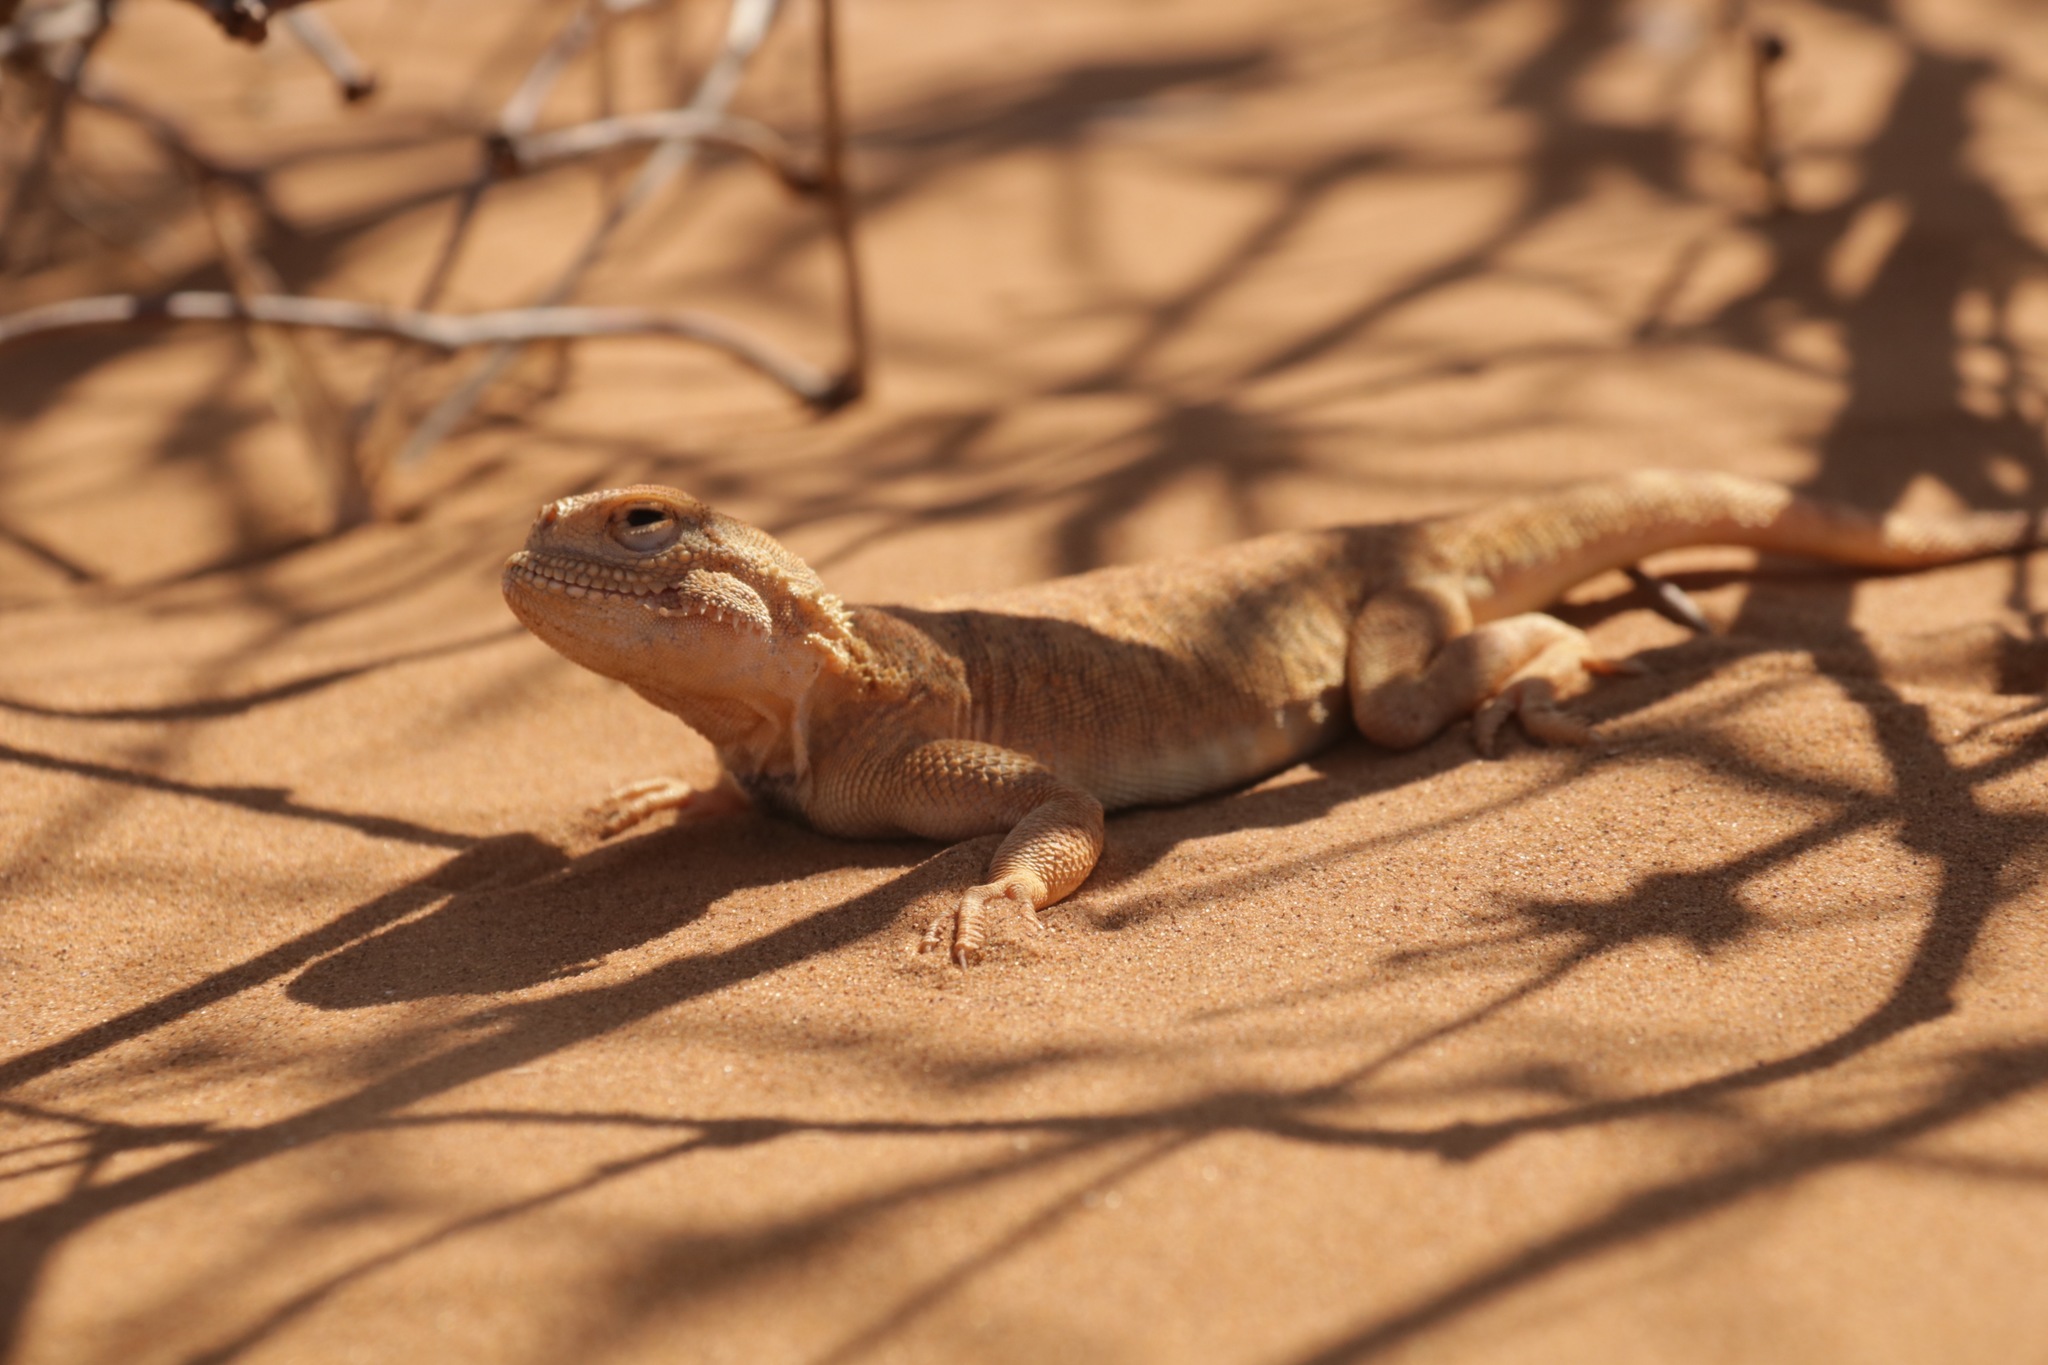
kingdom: Animalia
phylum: Chordata
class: Squamata
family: Agamidae
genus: Phrynocephalus
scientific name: Phrynocephalus mystaceus
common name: Secret toadhead agama
